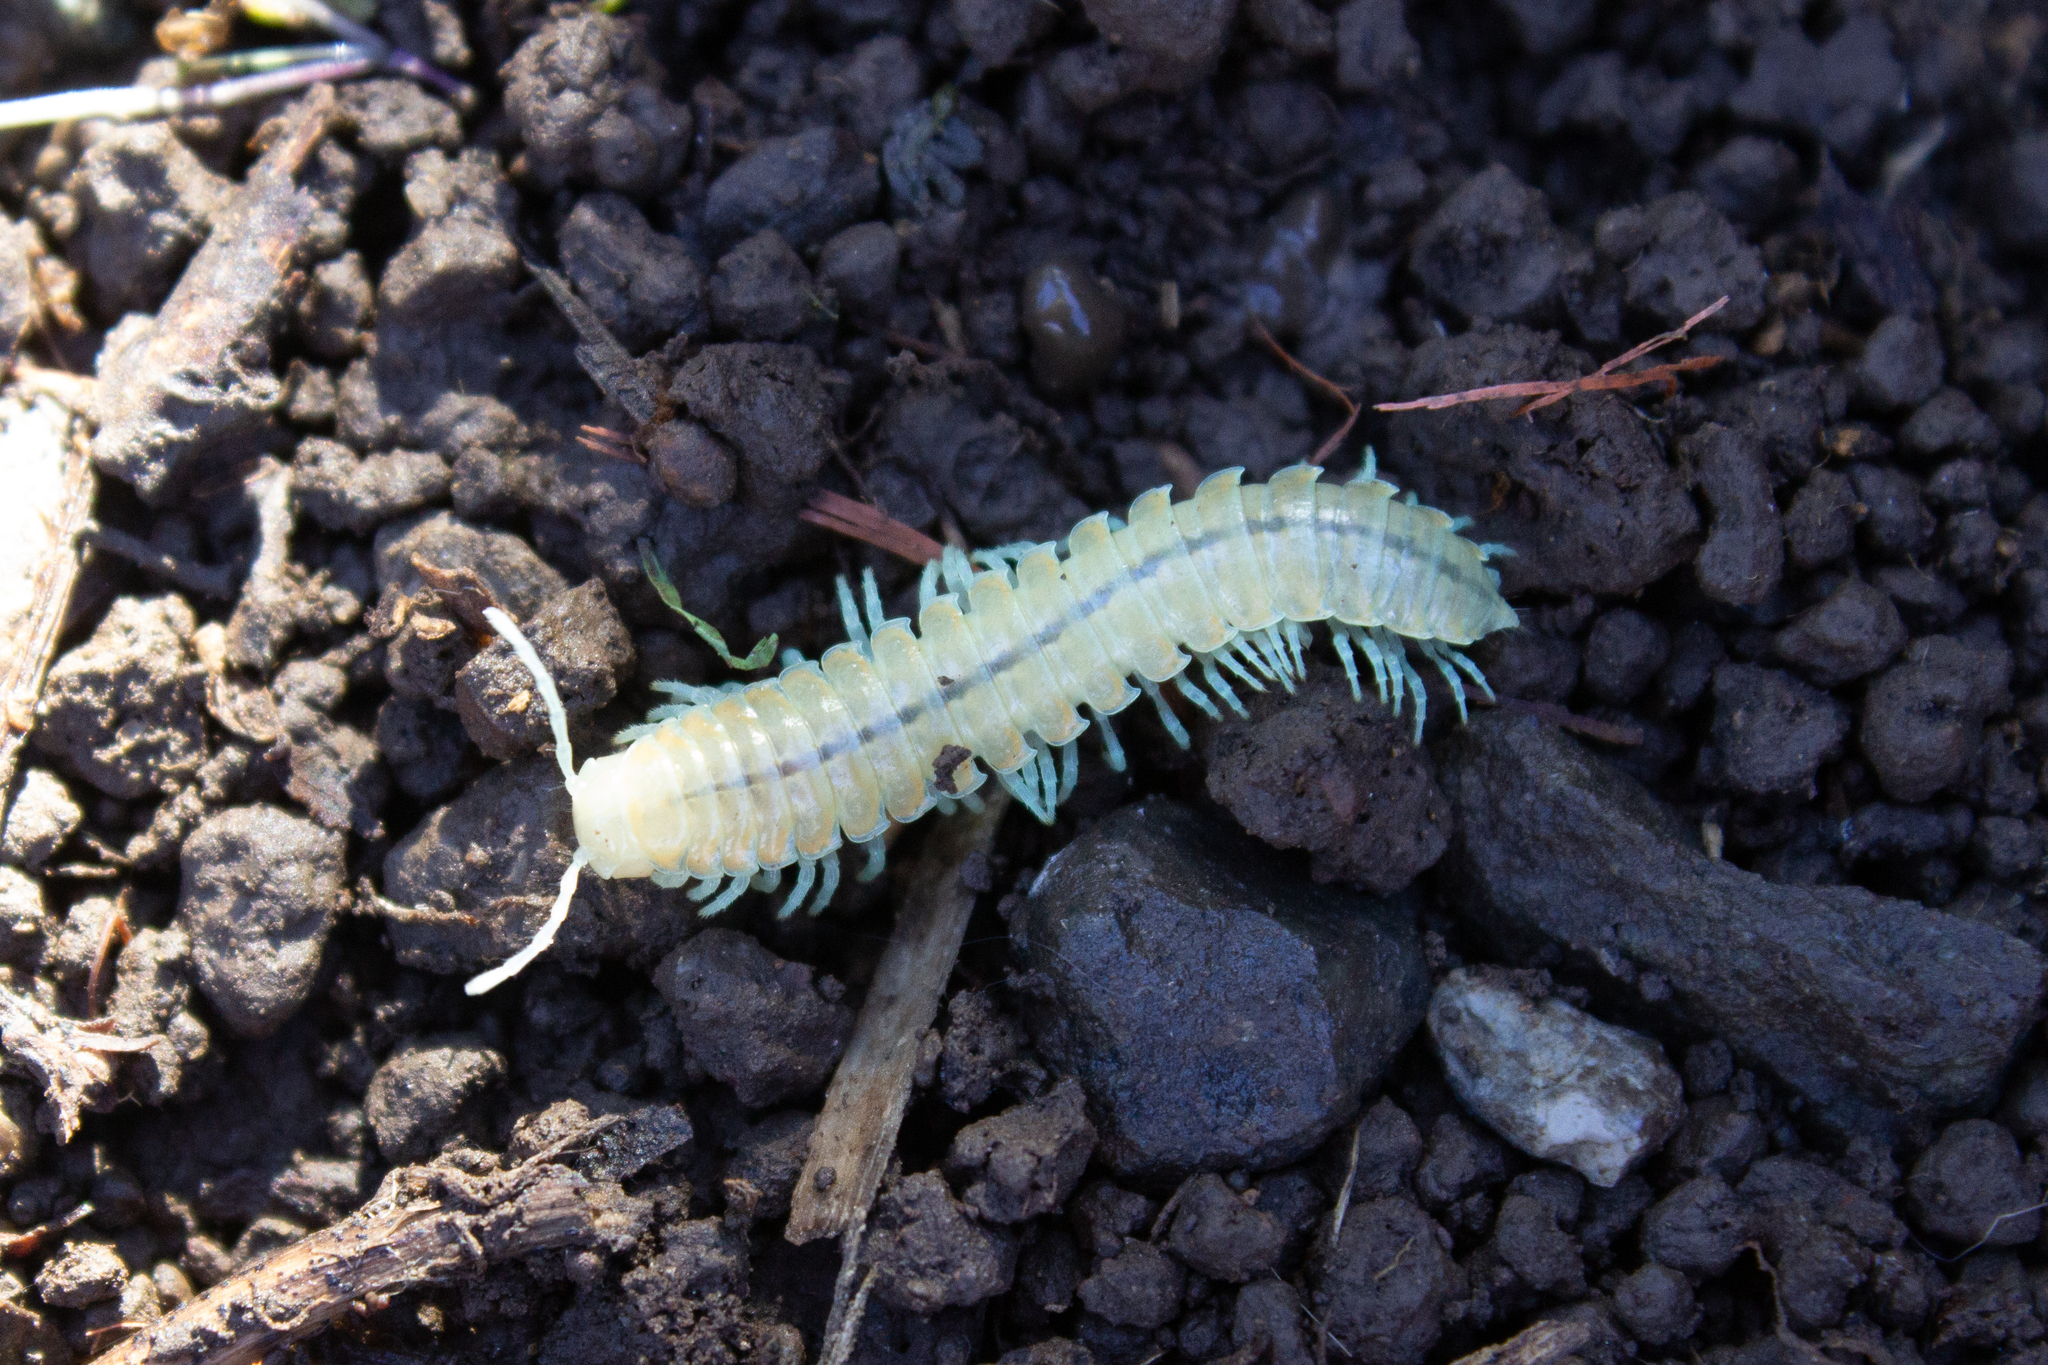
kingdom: Animalia
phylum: Arthropoda
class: Diplopoda
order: Polydesmida
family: Xystodesmidae
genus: Xystocheir
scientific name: Xystocheir dissecta
